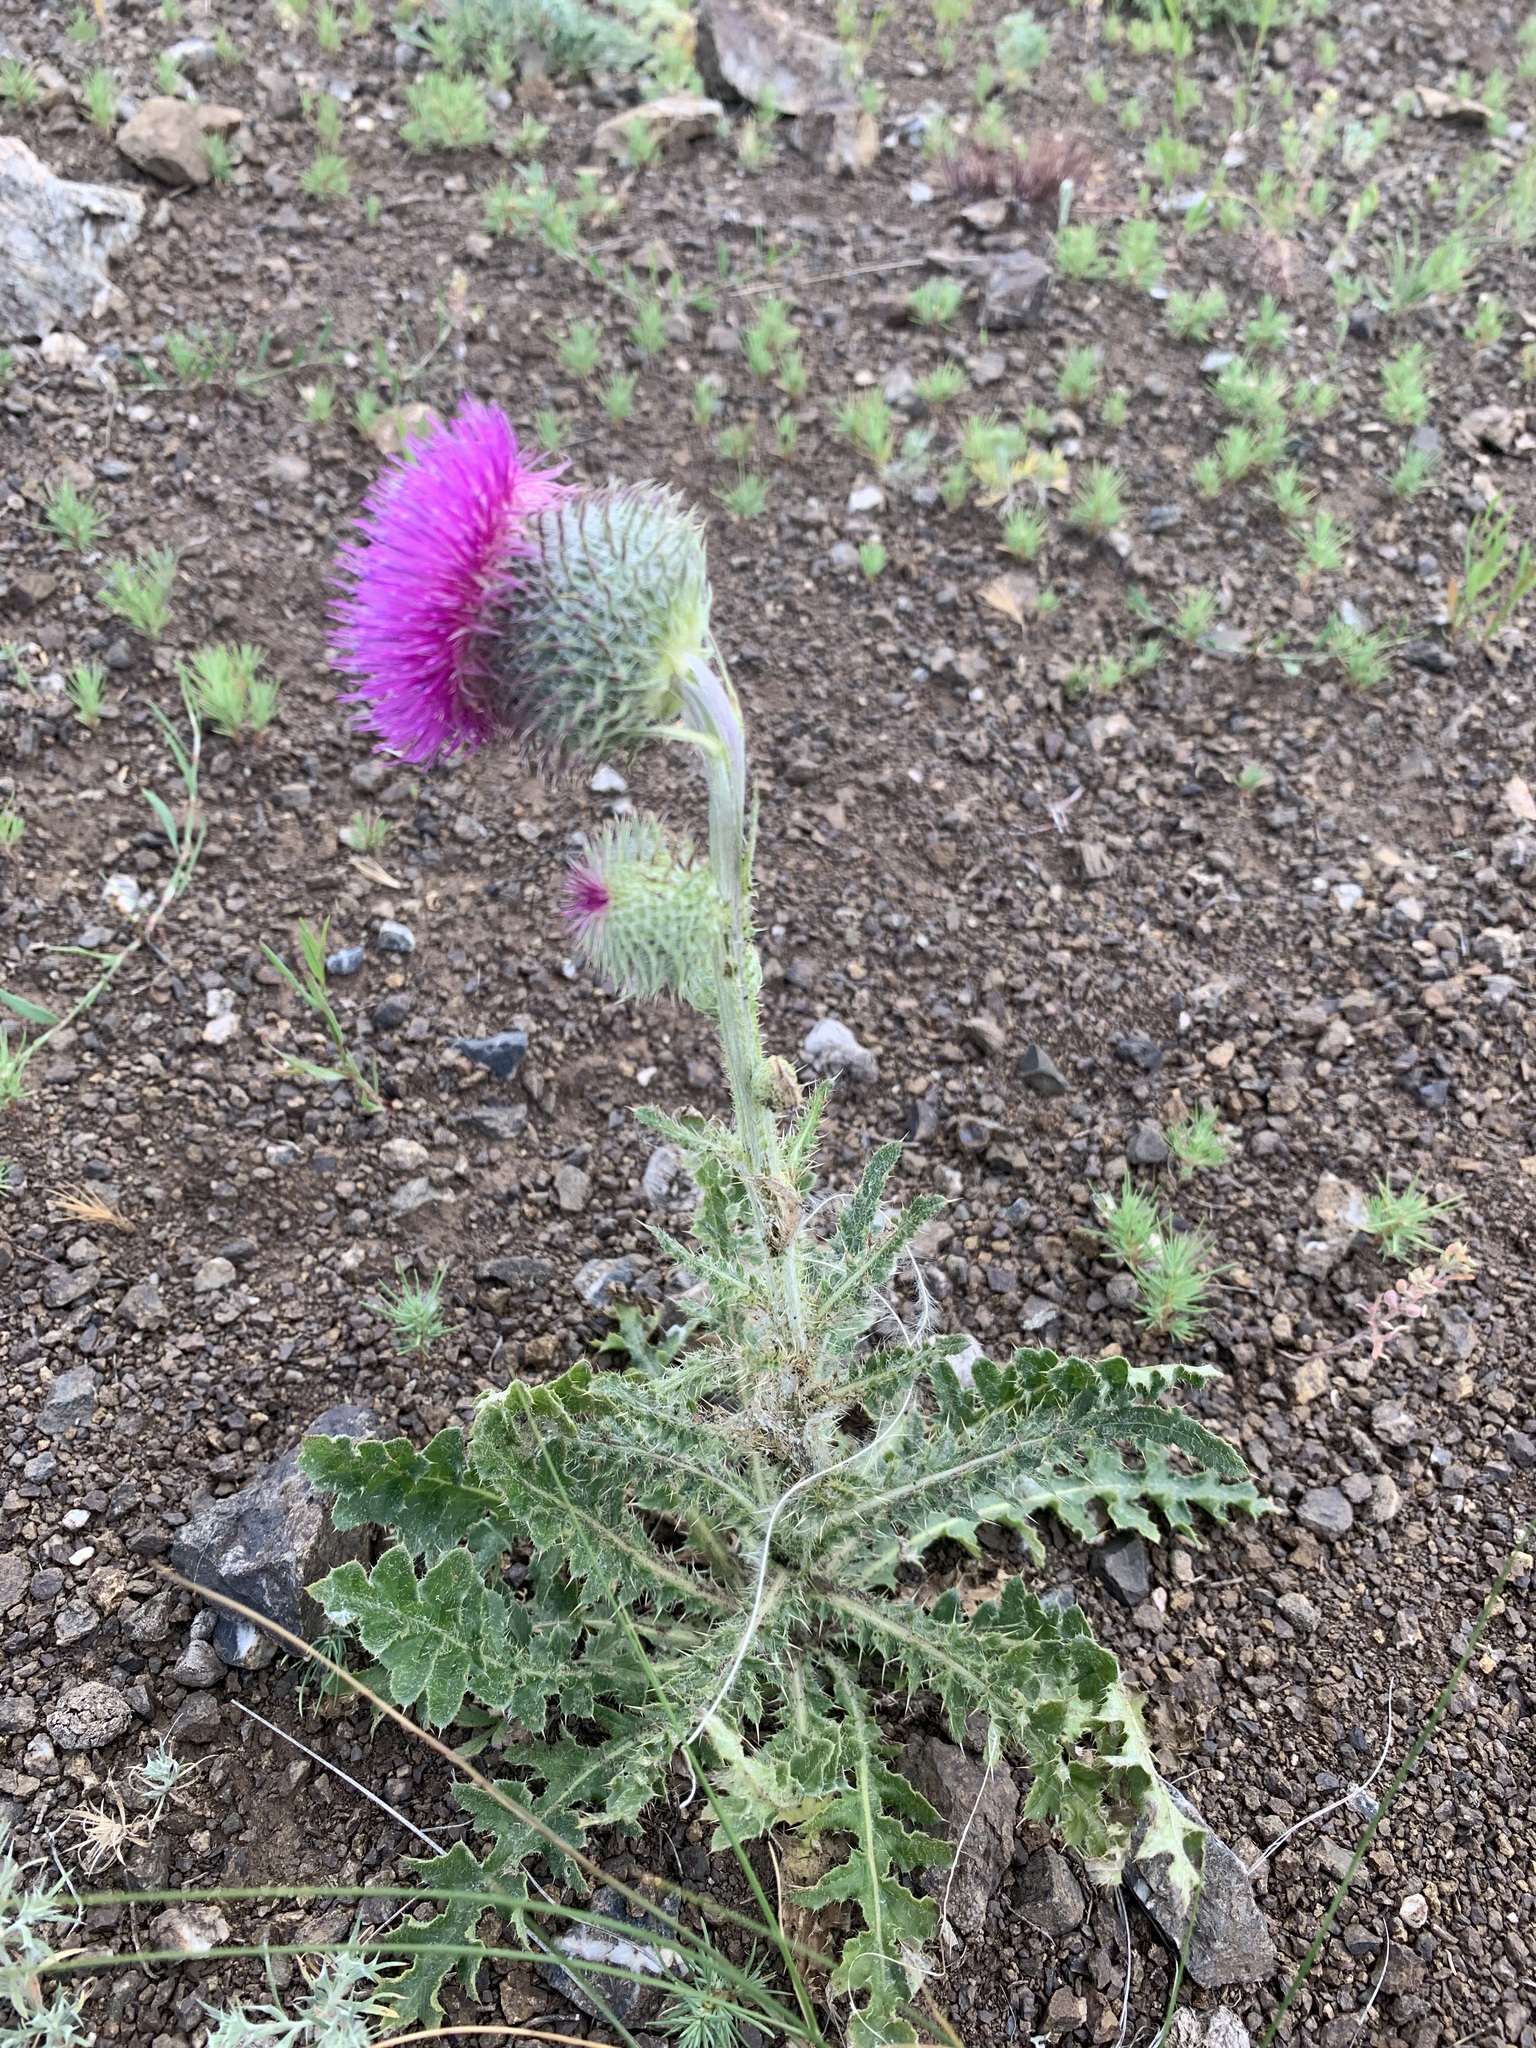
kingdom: Plantae
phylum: Tracheophyta
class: Magnoliopsida
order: Asterales
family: Asteraceae
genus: Carduus
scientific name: Carduus uncinatus
